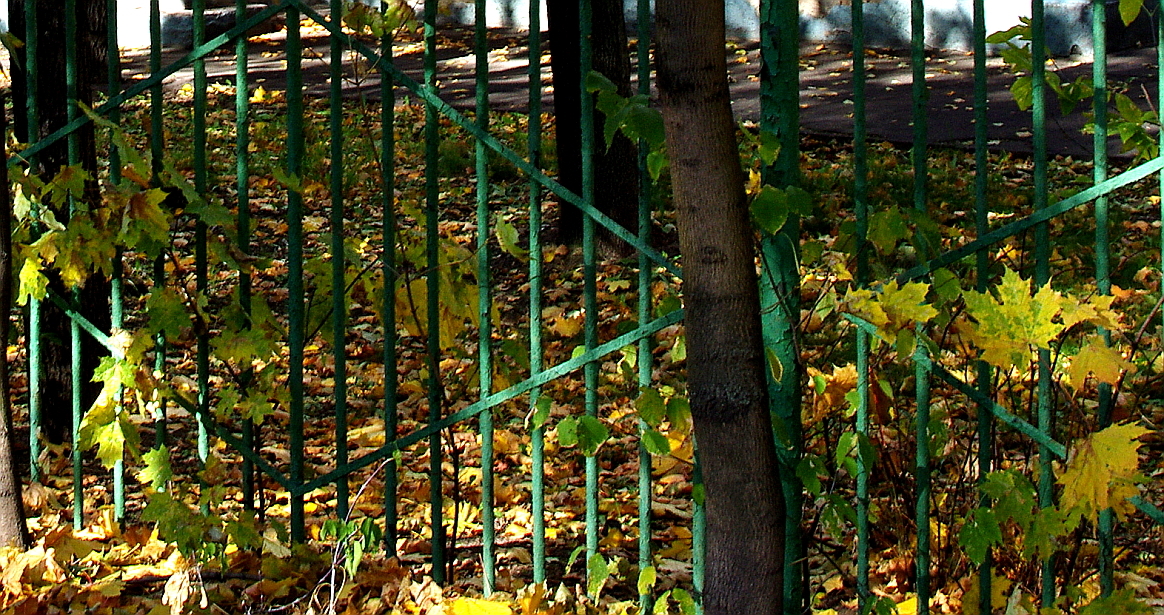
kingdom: Plantae
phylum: Tracheophyta
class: Magnoliopsida
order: Sapindales
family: Sapindaceae
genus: Acer
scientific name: Acer platanoides
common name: Norway maple
